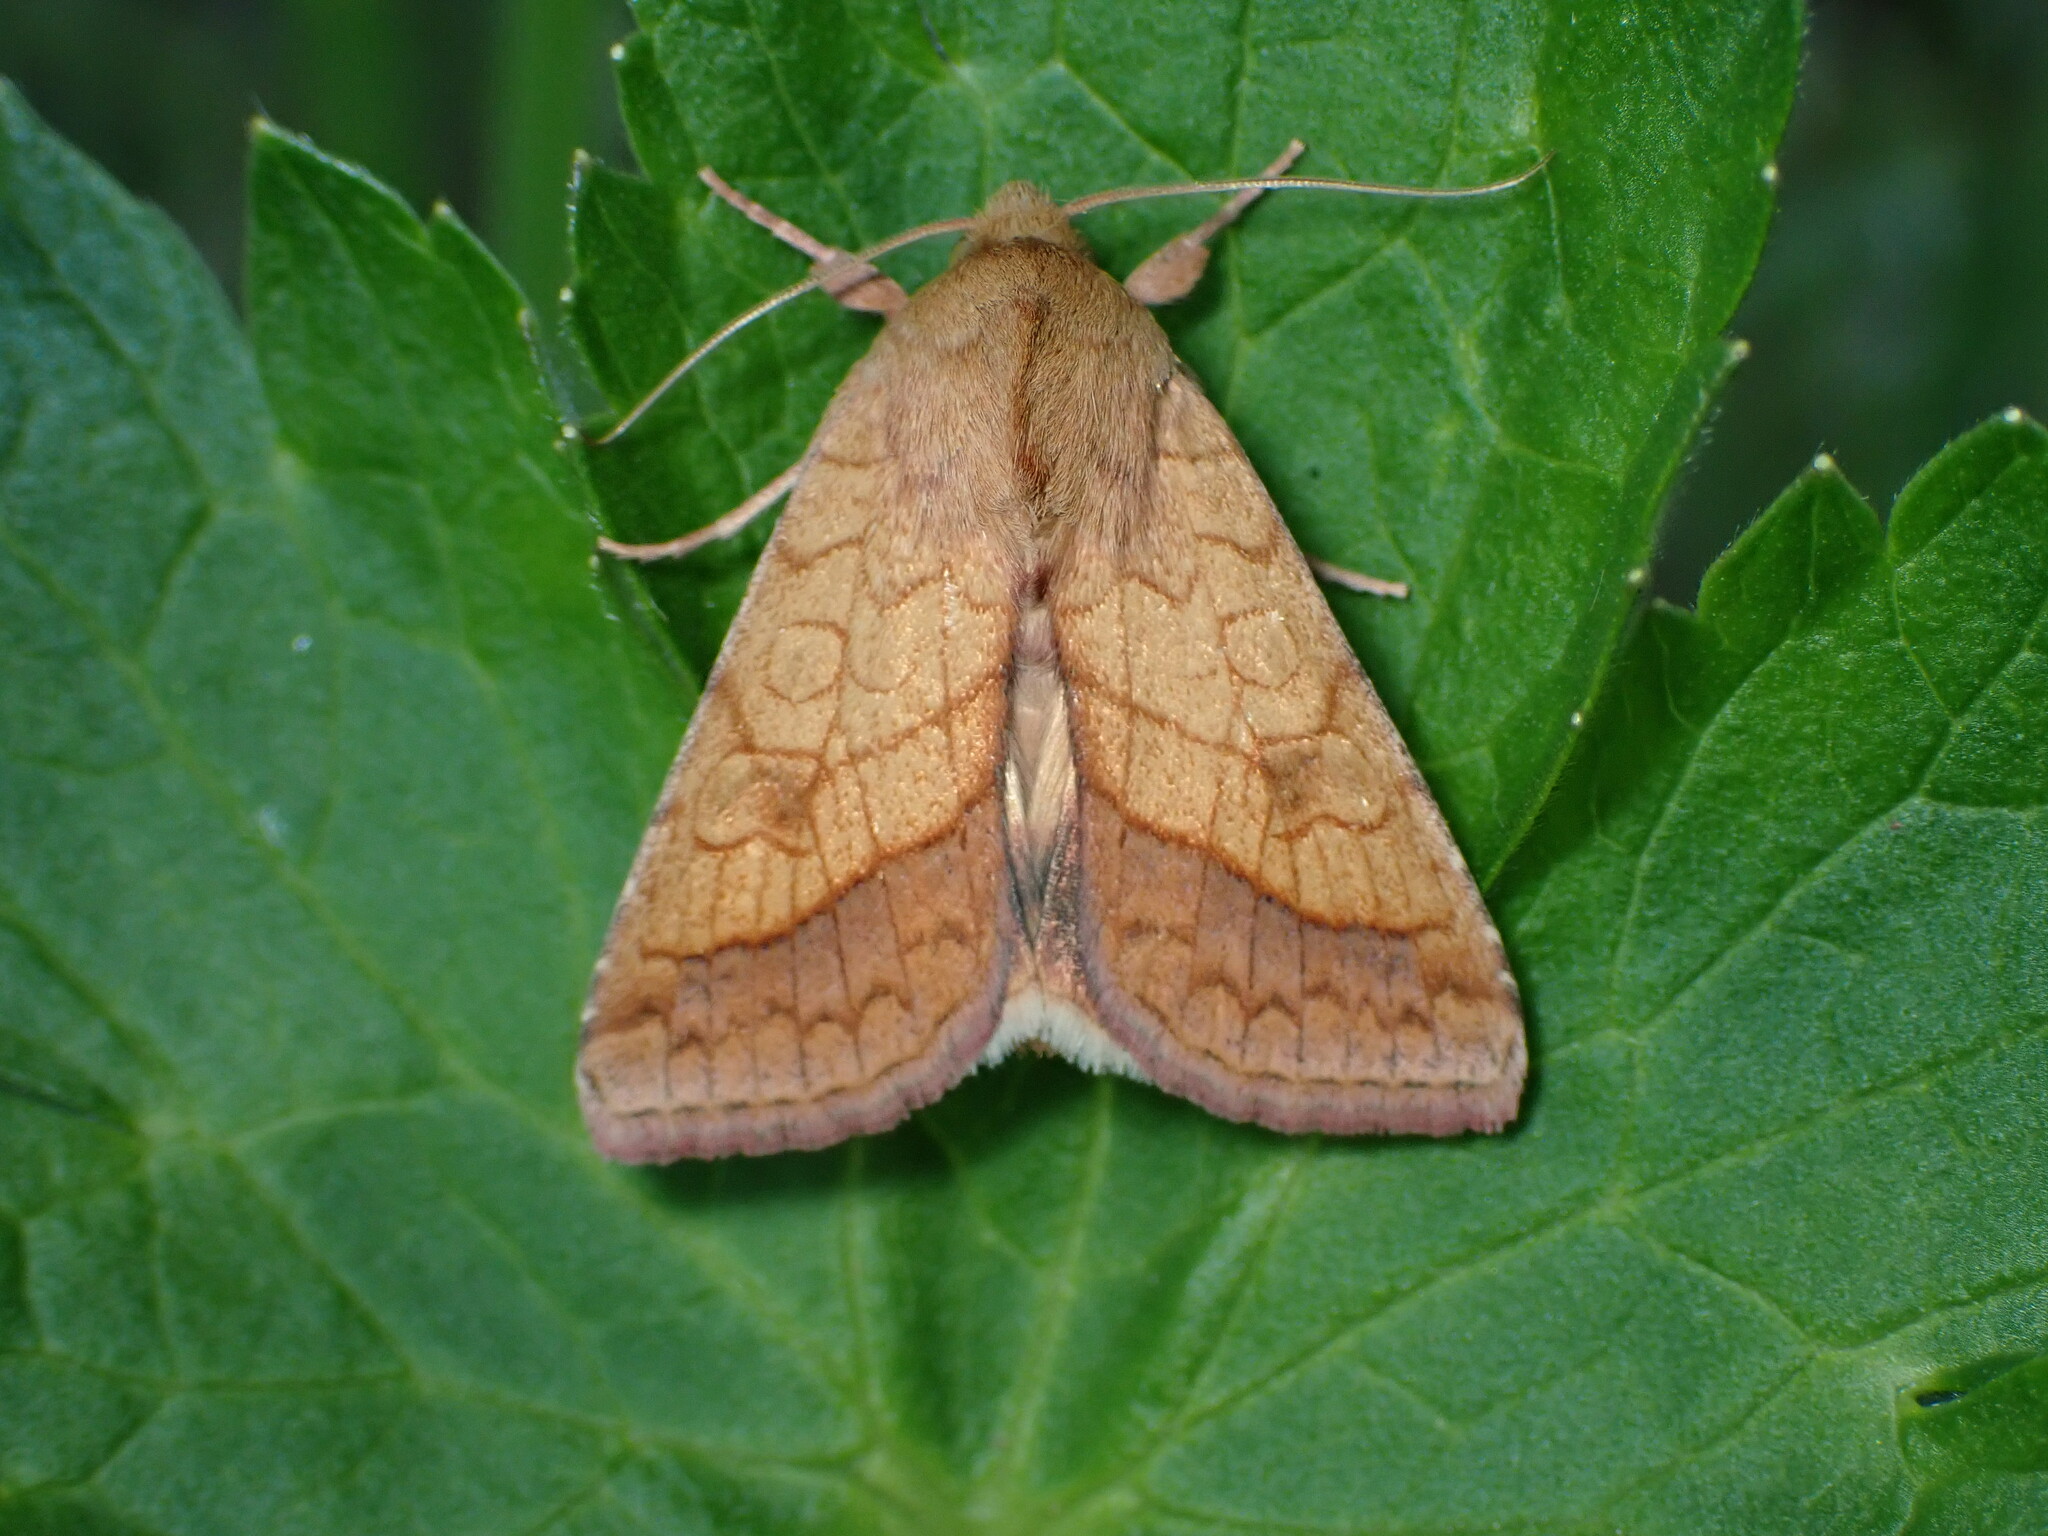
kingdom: Animalia
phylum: Arthropoda
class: Insecta
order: Lepidoptera
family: Noctuidae
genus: Pyrrhia
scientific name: Pyrrhia umbra
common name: Bordered sallow
